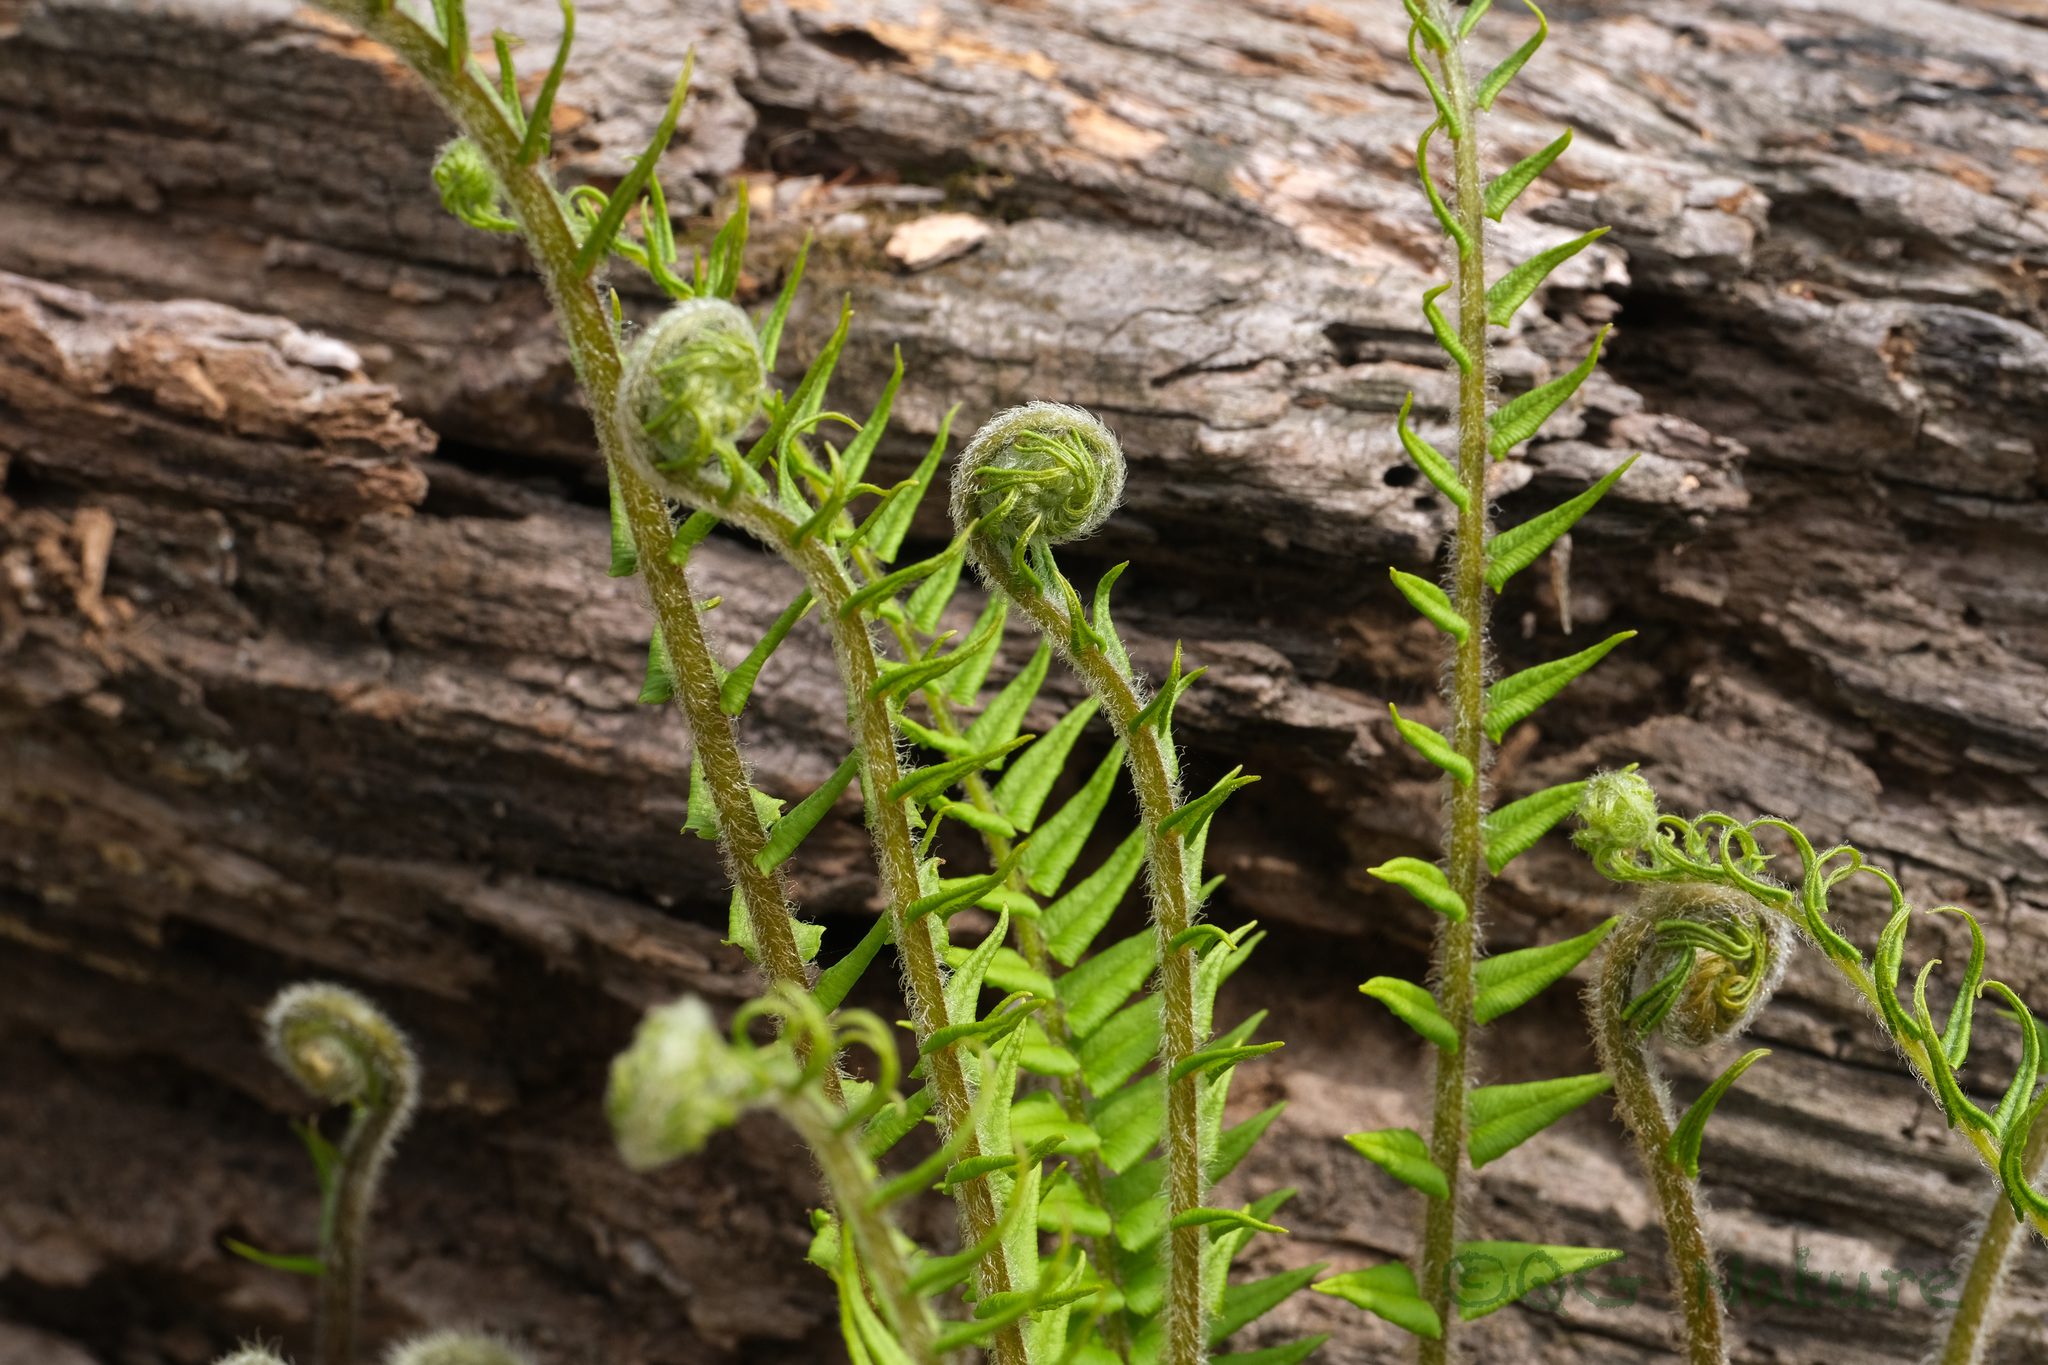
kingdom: Plantae
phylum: Tracheophyta
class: Polypodiopsida
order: Polypodiales
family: Pteridaceae
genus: Pteris
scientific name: Pteris vittata
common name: Ladder brake
